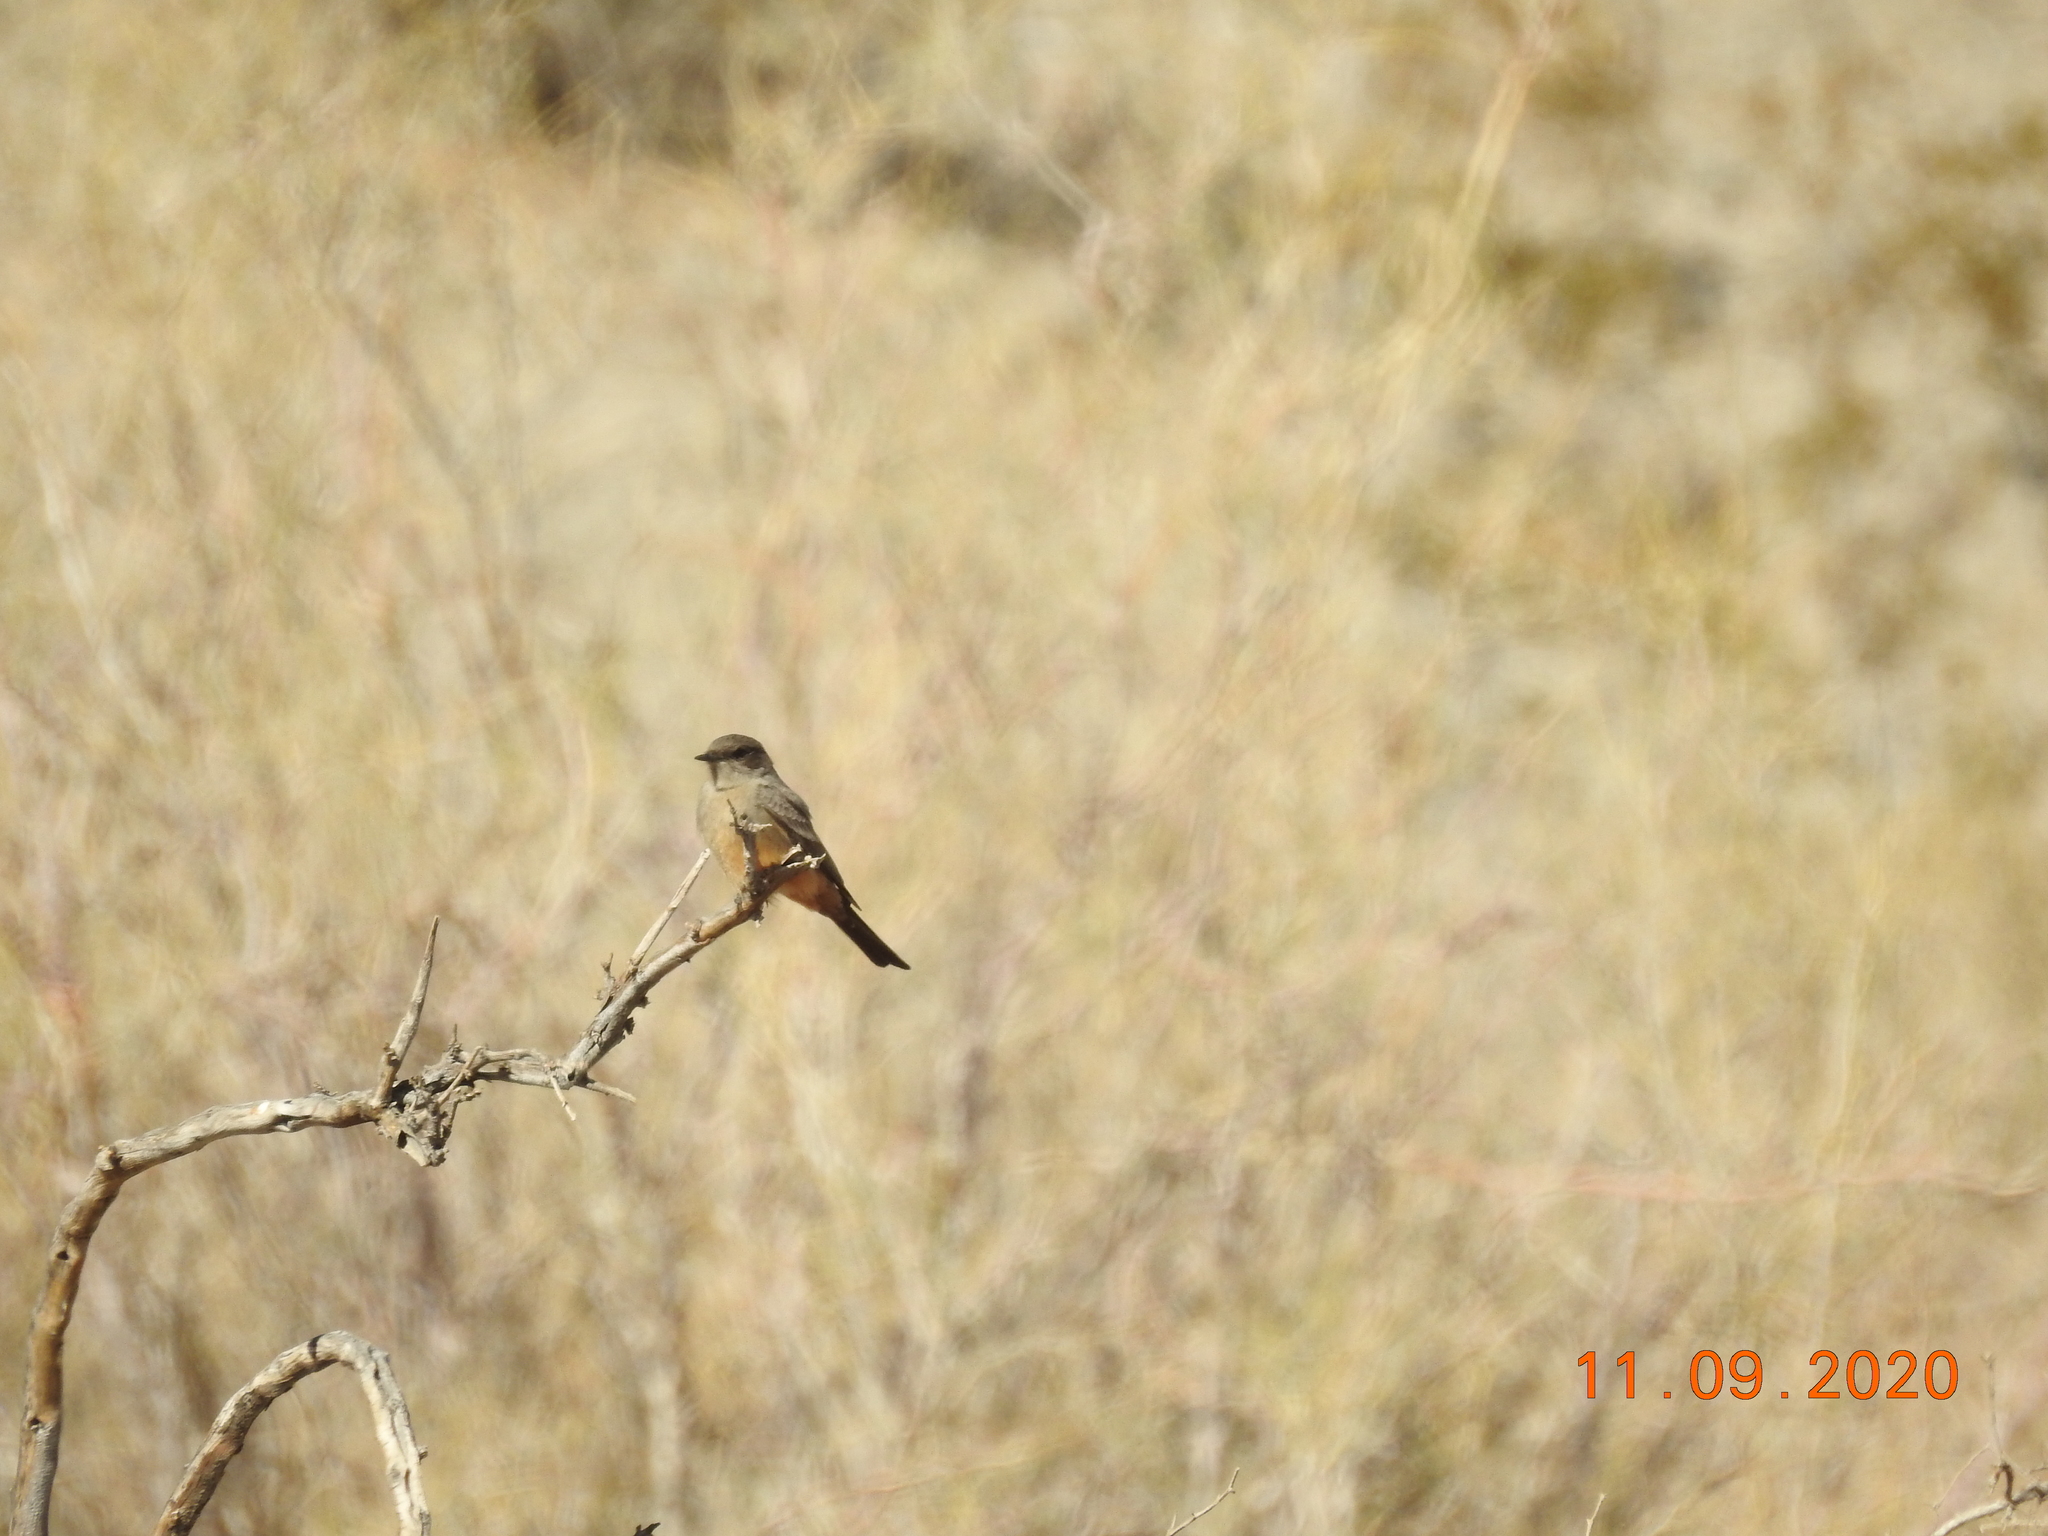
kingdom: Animalia
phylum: Chordata
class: Aves
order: Passeriformes
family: Tyrannidae
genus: Sayornis
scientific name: Sayornis saya
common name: Say's phoebe
